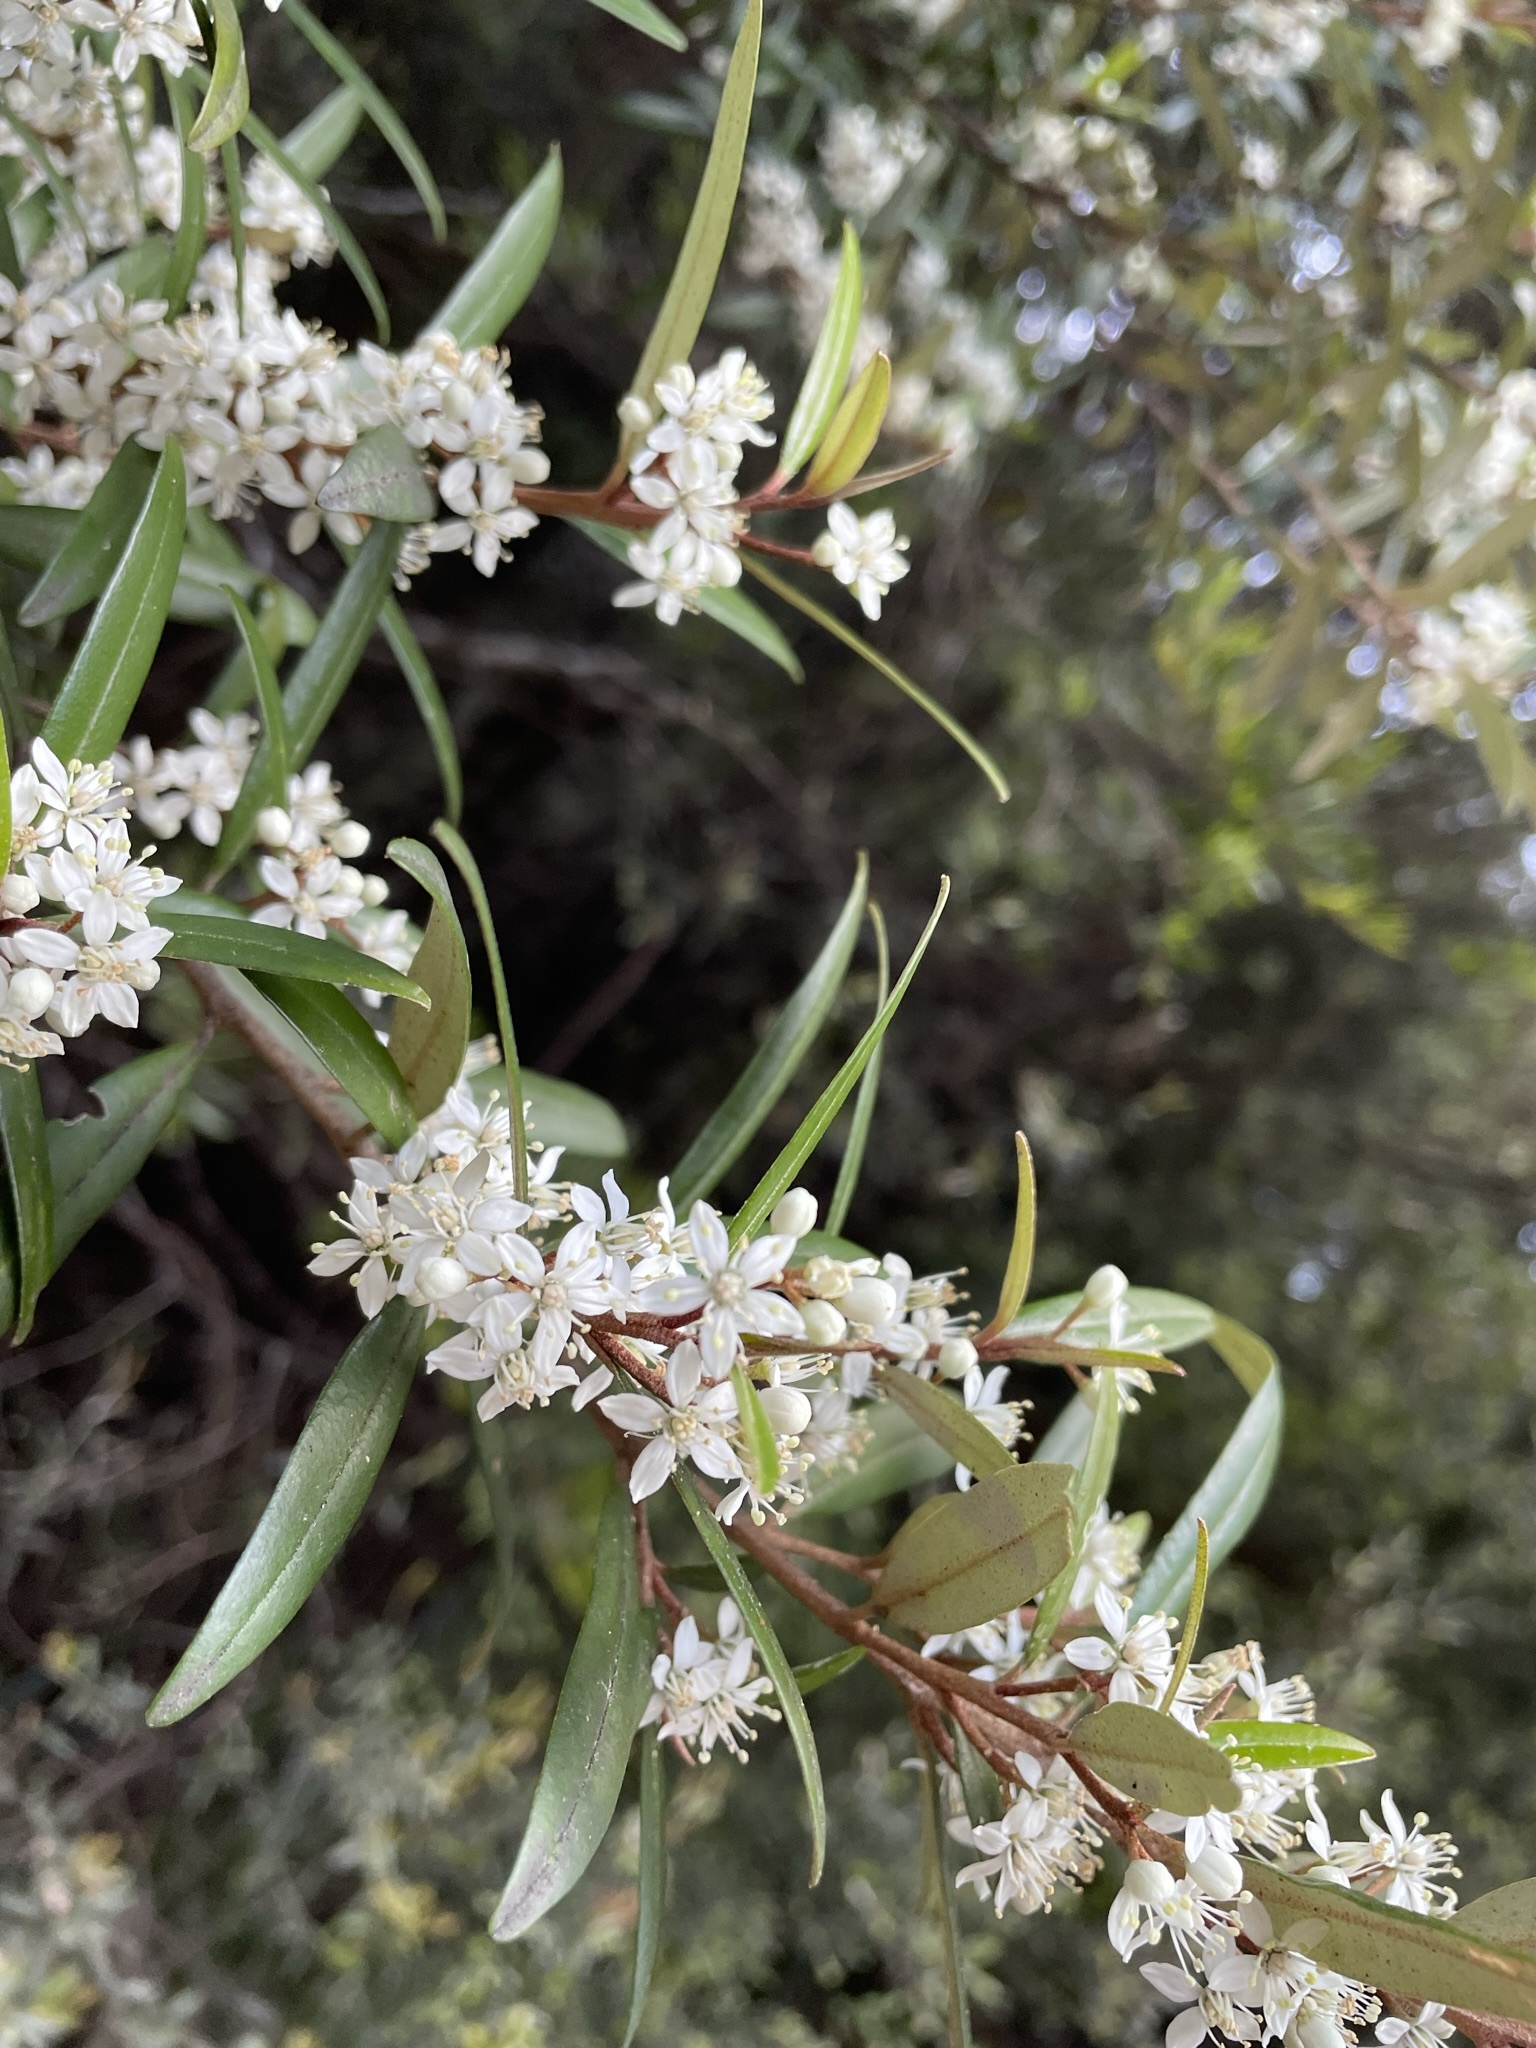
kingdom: Plantae
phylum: Tracheophyta
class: Magnoliopsida
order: Sapindales
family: Rutaceae
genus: Nematolepis
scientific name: Nematolepis squamea
